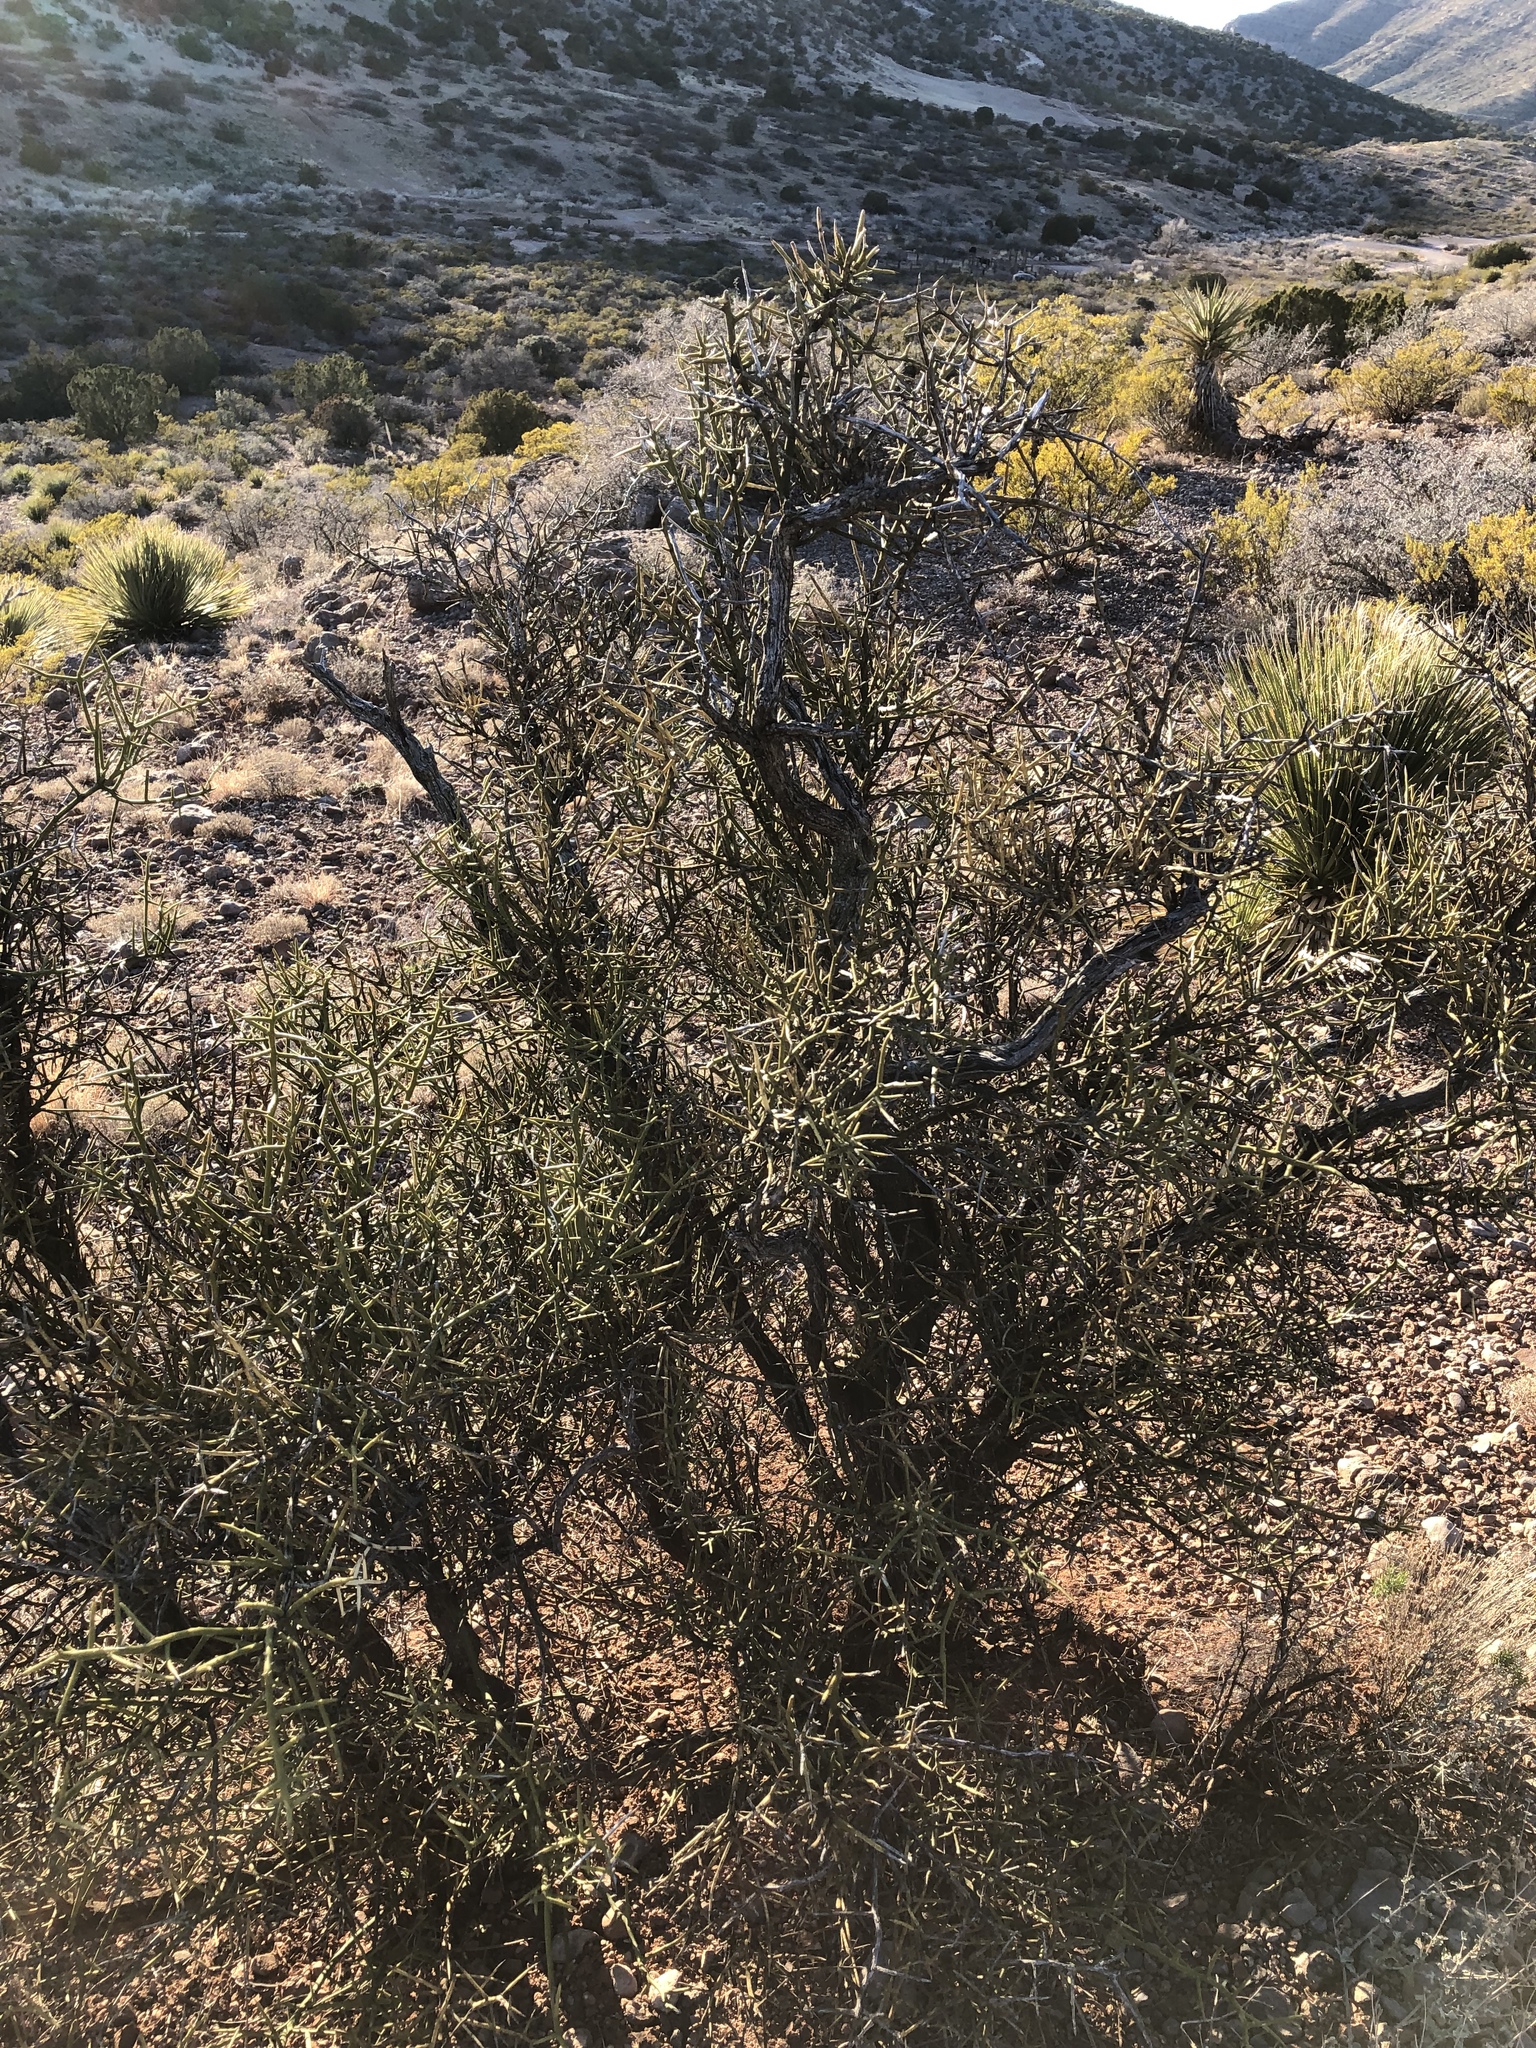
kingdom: Plantae
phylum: Tracheophyta
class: Magnoliopsida
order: Brassicales
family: Koeberliniaceae
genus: Koeberlinia
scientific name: Koeberlinia spinosa
